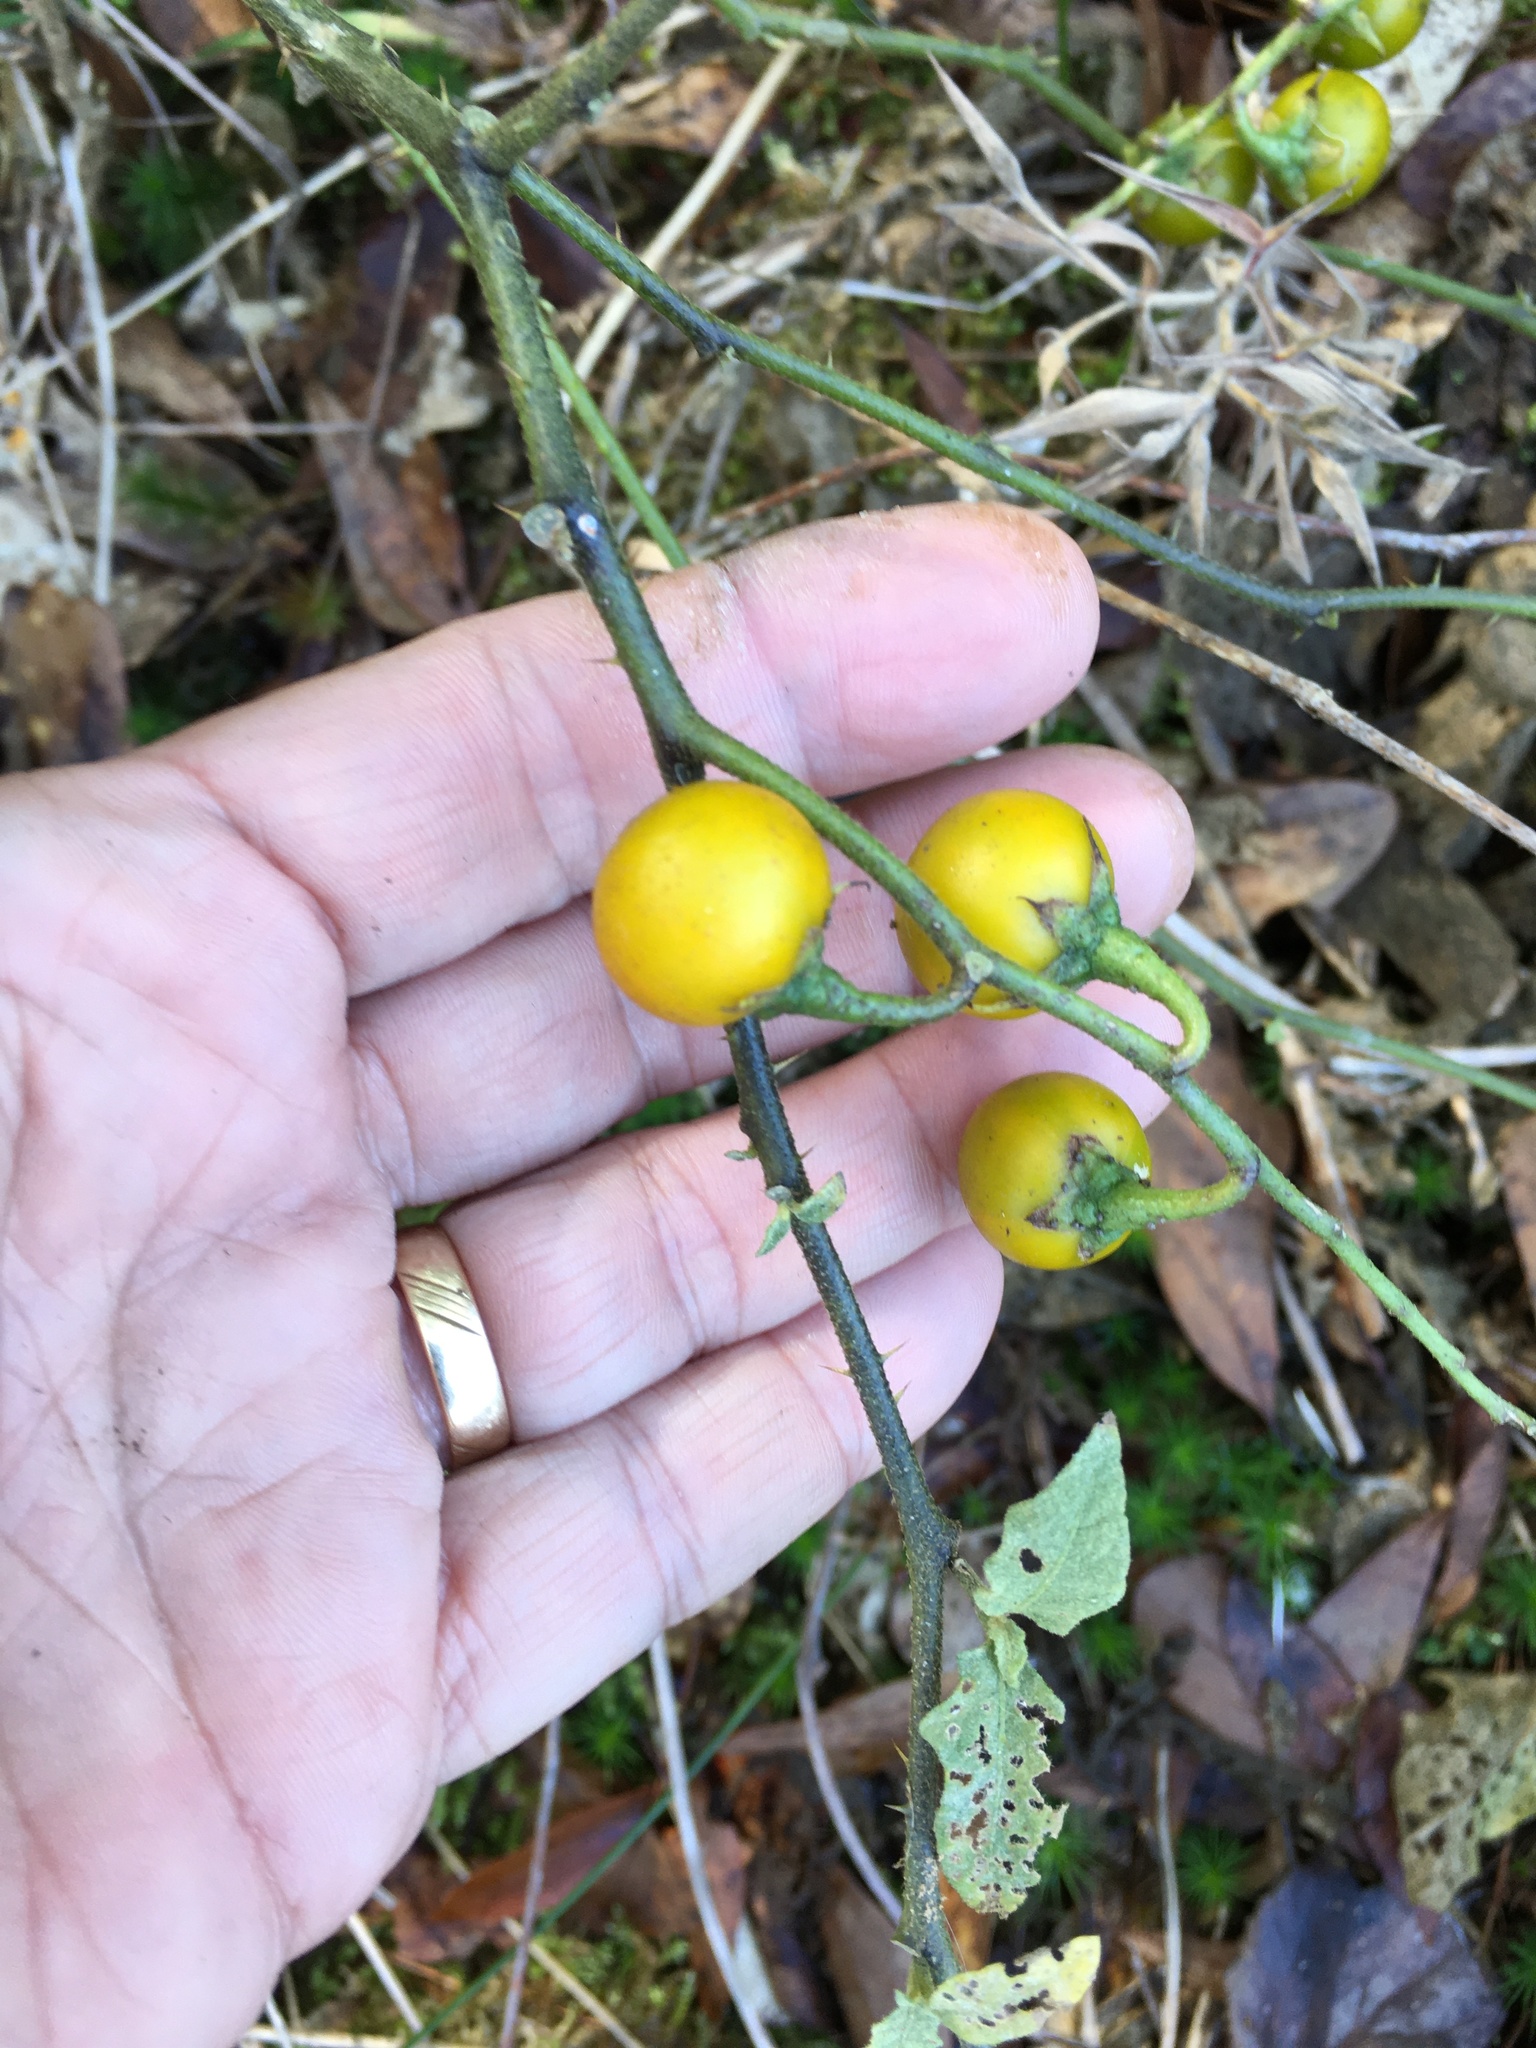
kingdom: Plantae
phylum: Tracheophyta
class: Magnoliopsida
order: Solanales
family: Solanaceae
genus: Solanum
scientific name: Solanum carolinense
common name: Horse-nettle
